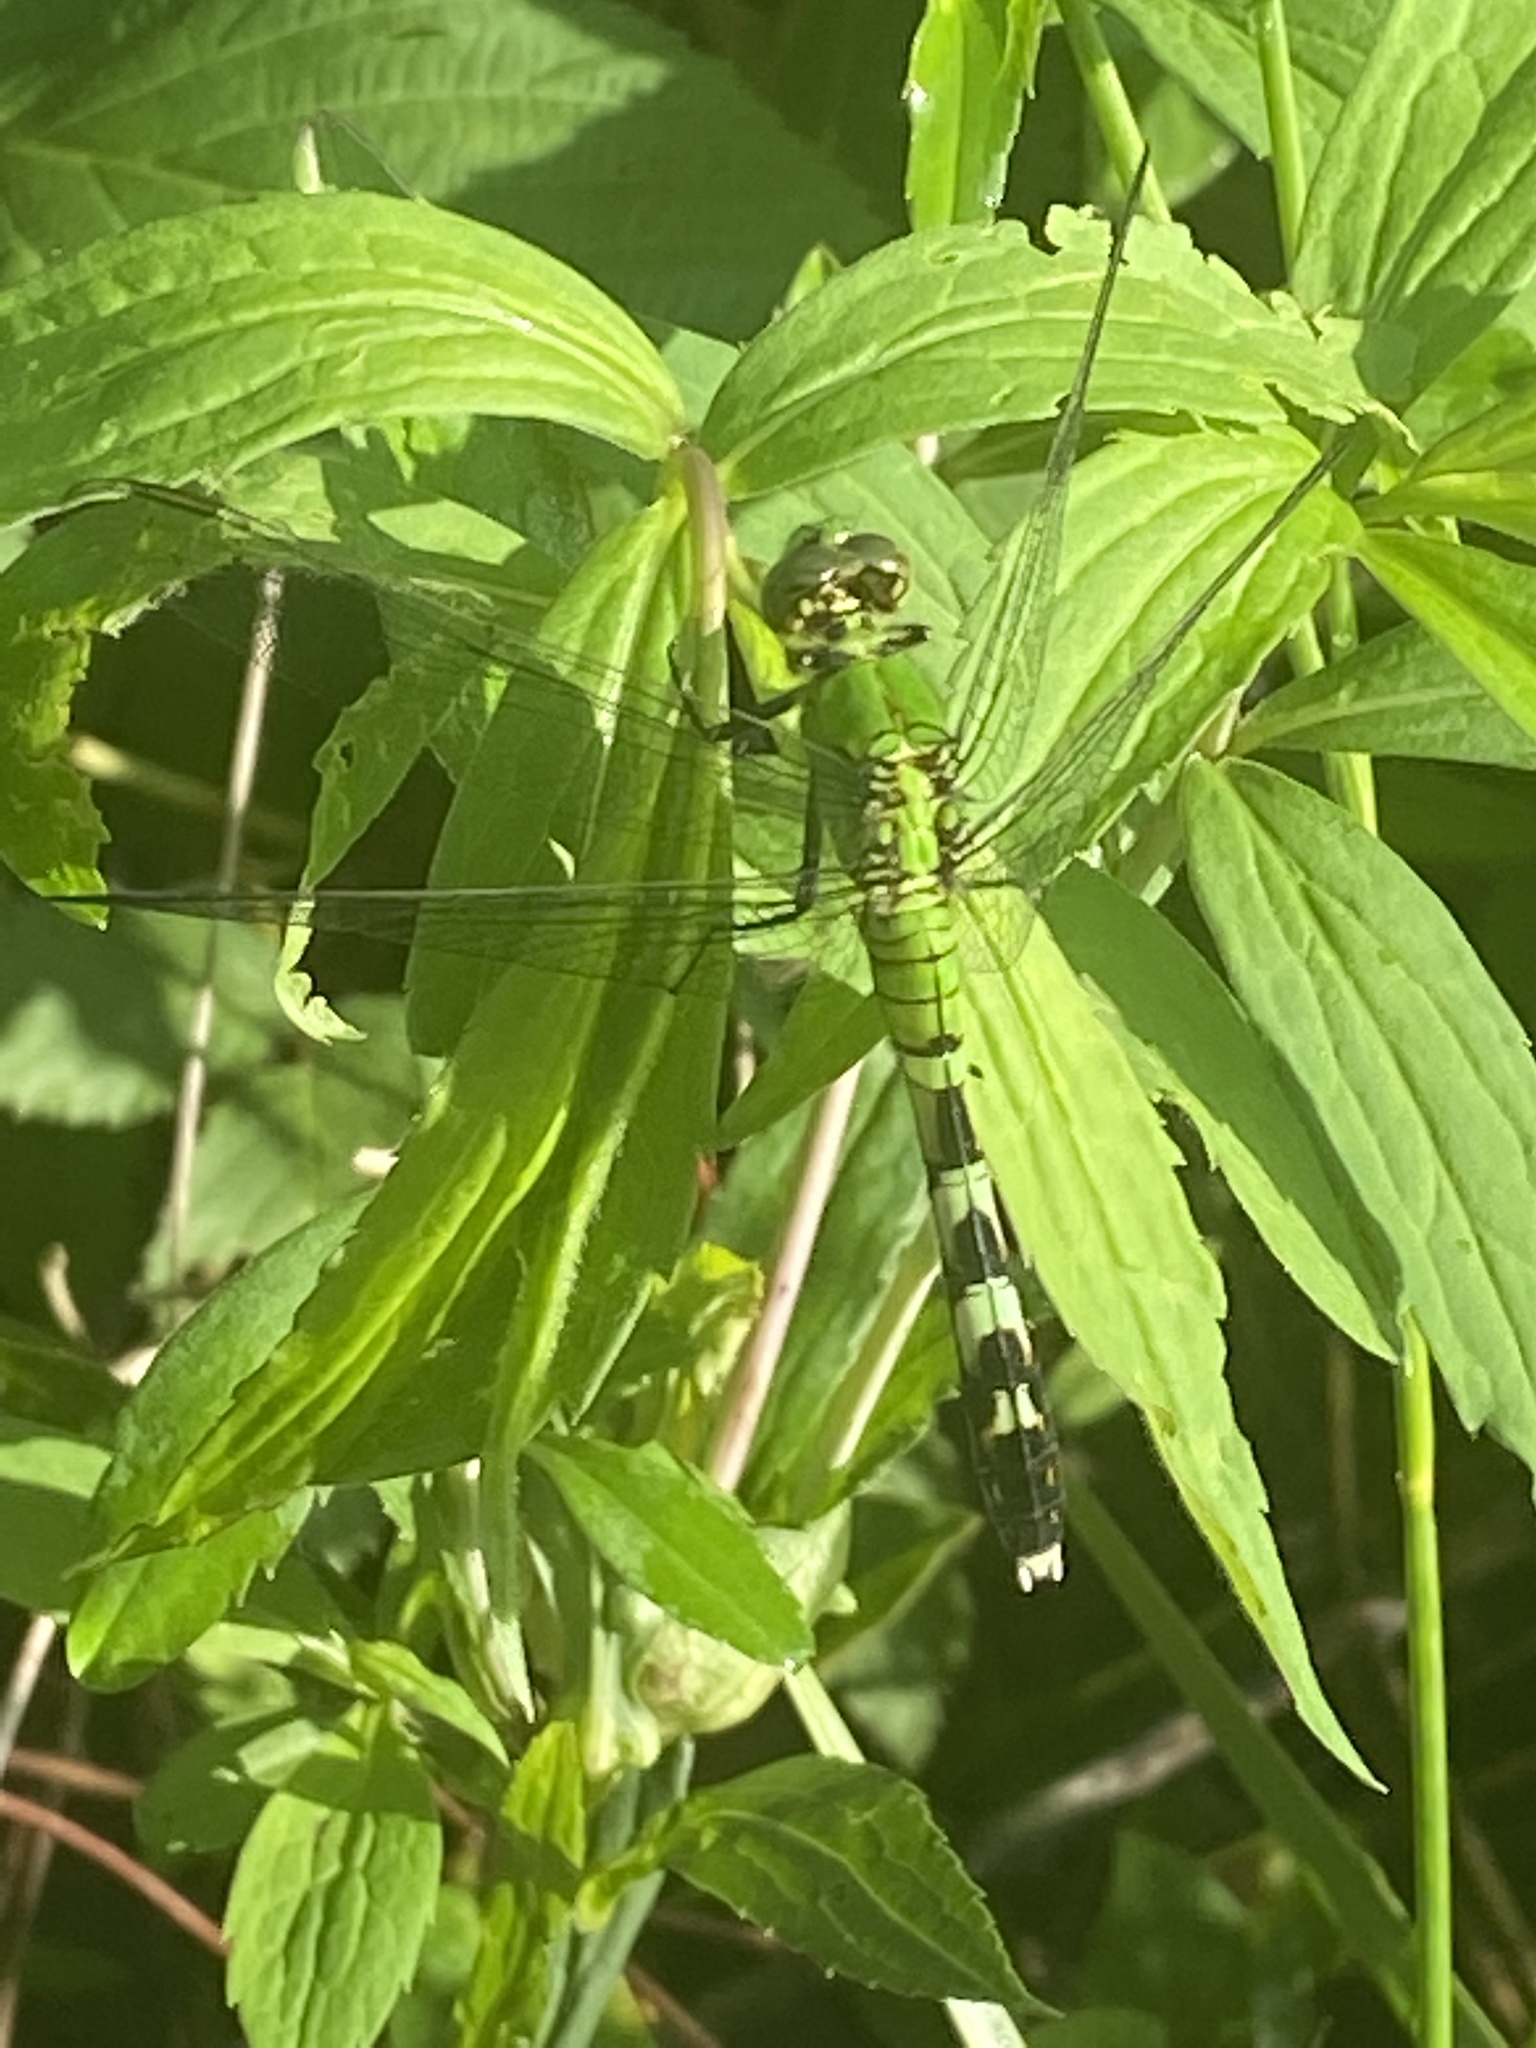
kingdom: Animalia
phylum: Arthropoda
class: Insecta
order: Odonata
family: Libellulidae
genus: Erythemis
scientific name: Erythemis simplicicollis
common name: Eastern pondhawk
